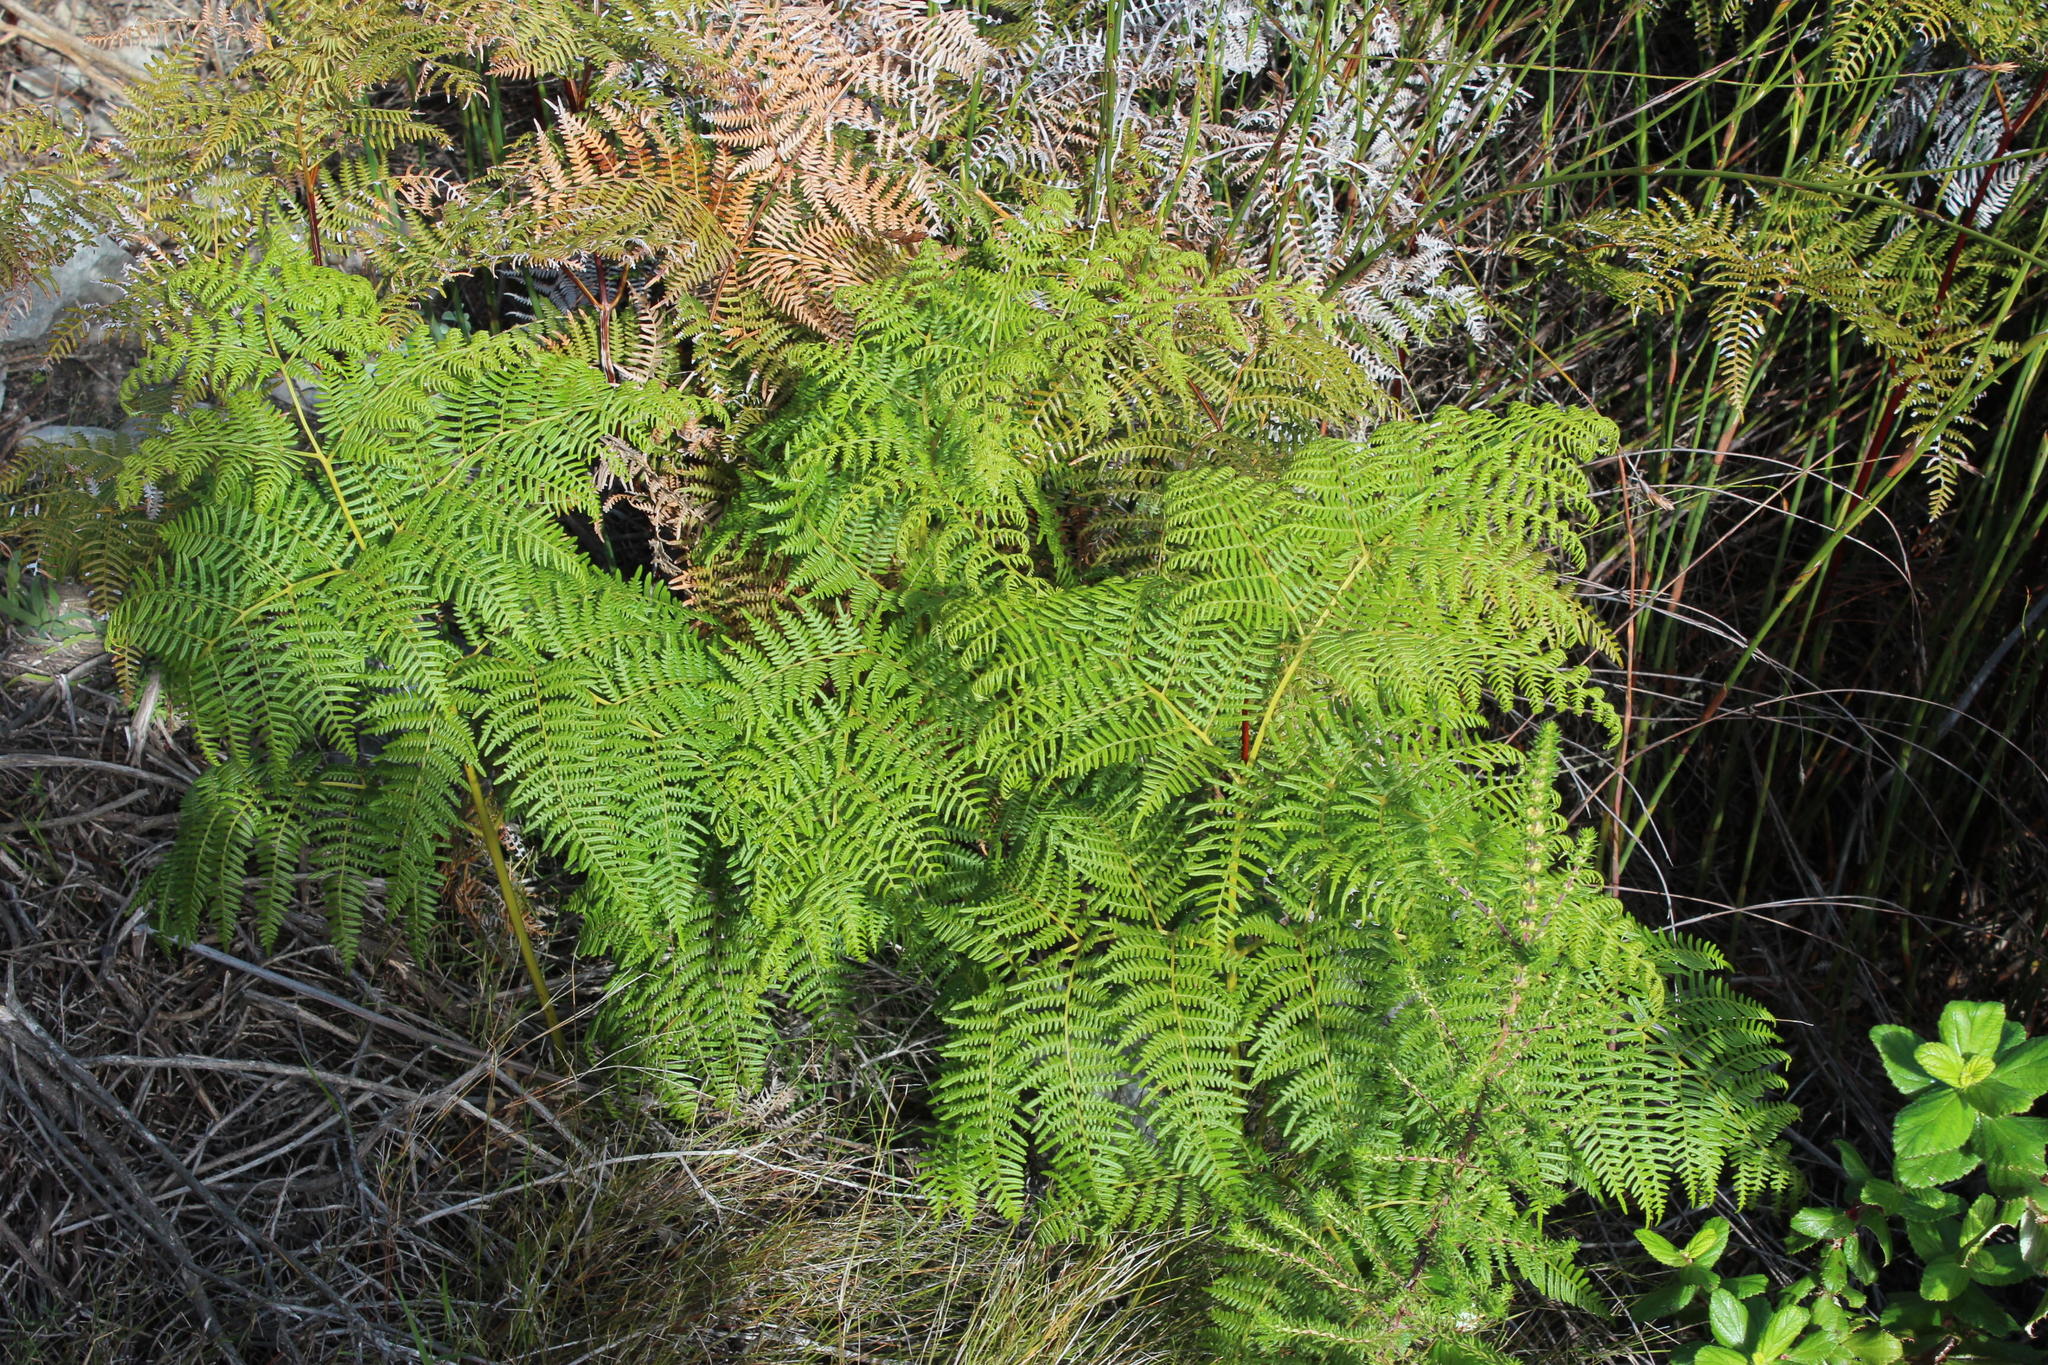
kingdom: Plantae
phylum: Tracheophyta
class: Polypodiopsida
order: Polypodiales
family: Dennstaedtiaceae
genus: Pteridium
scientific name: Pteridium aquilinum
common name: Bracken
